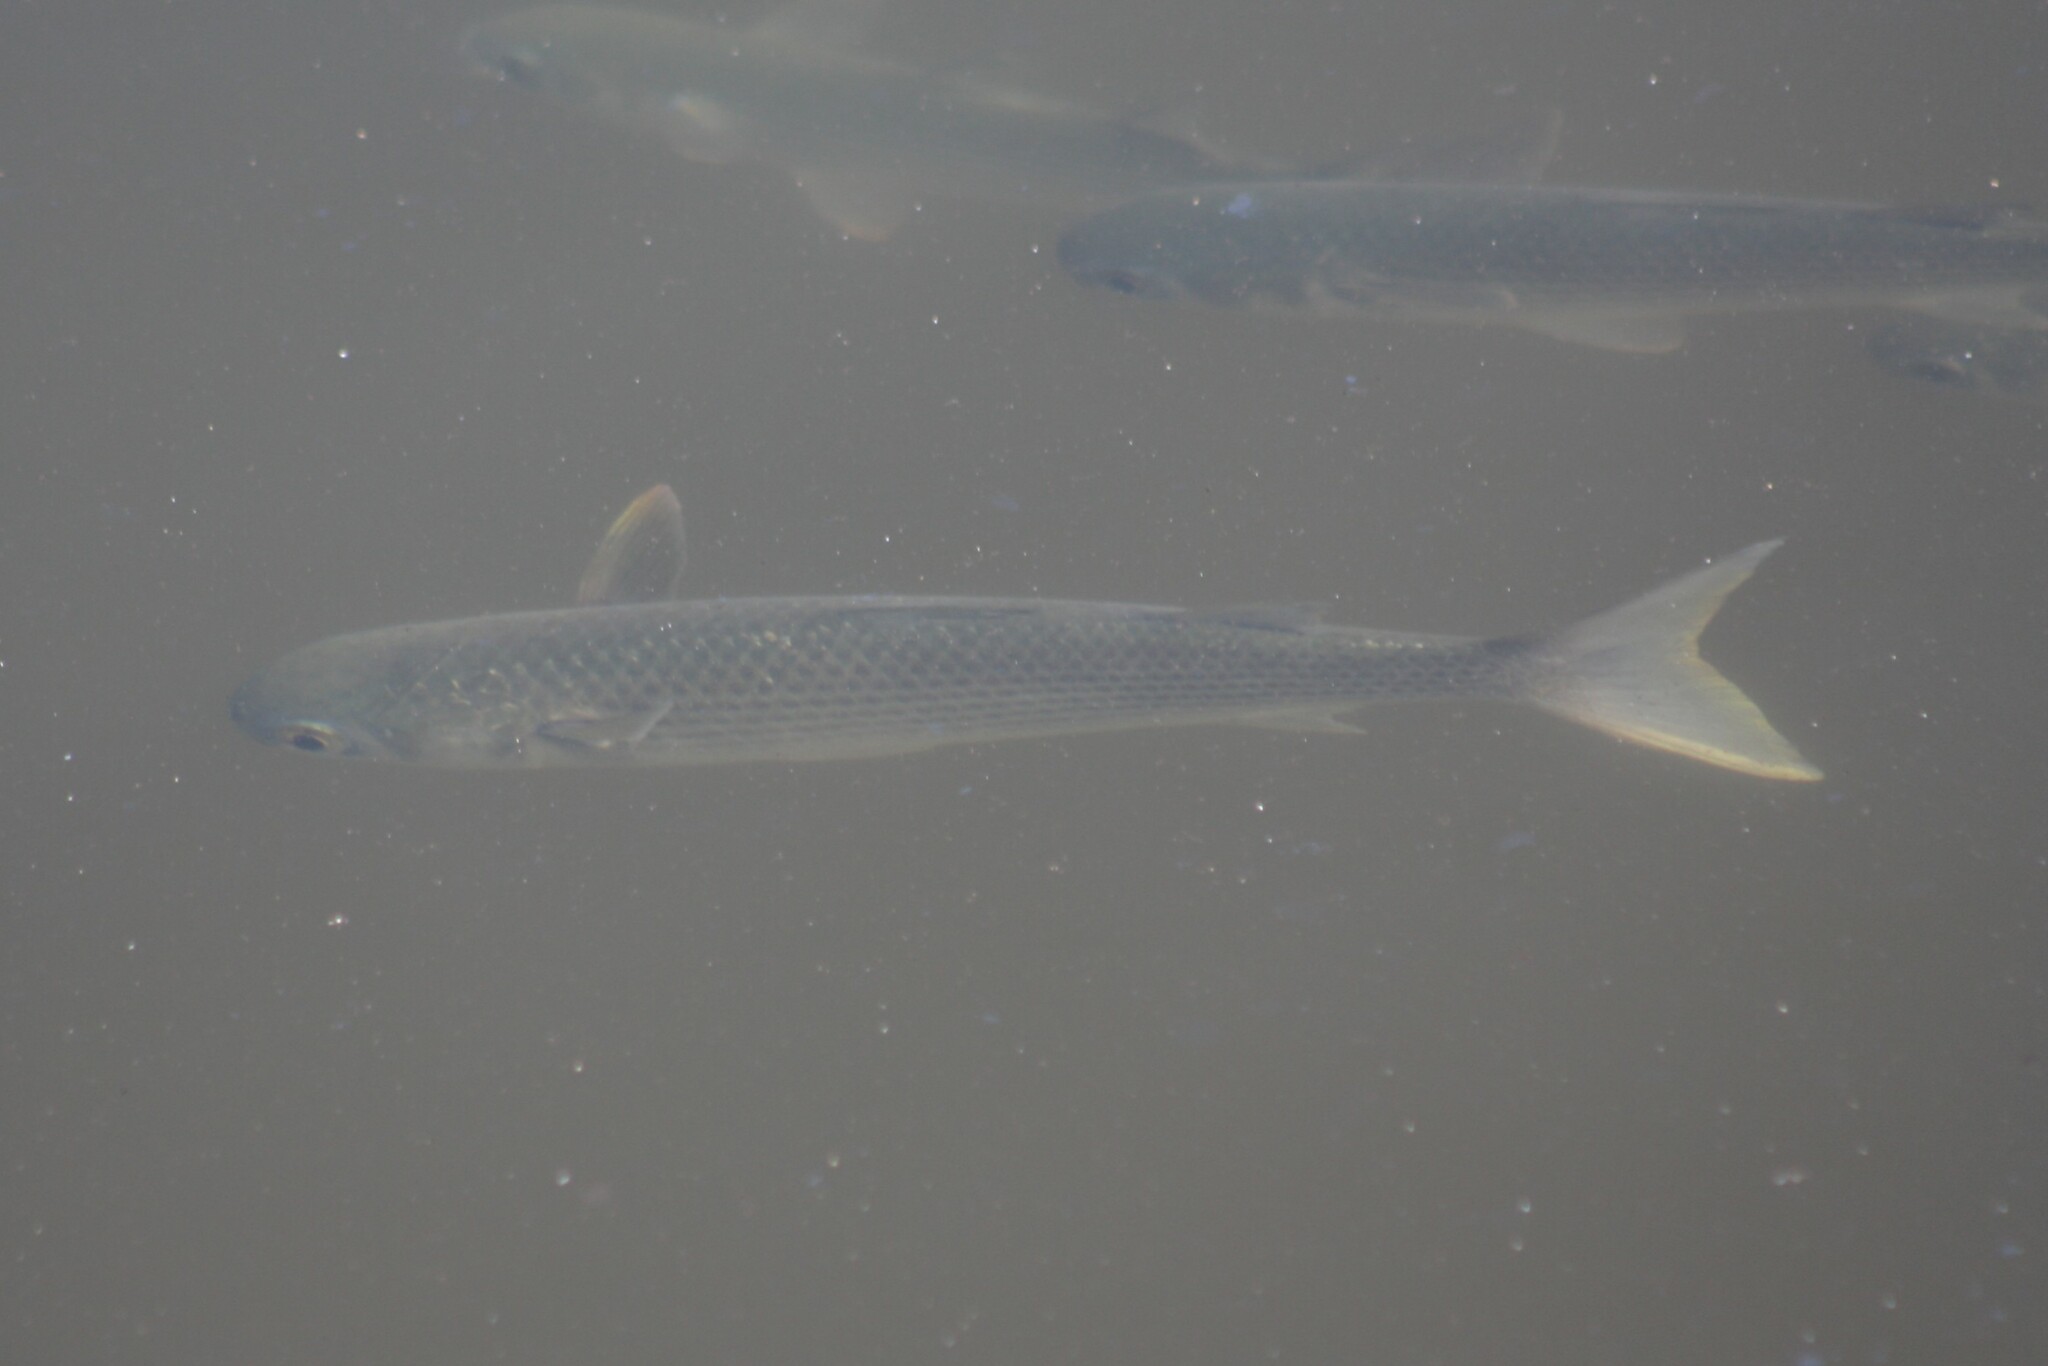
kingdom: Animalia
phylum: Chordata
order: Mugiliformes
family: Mugilidae
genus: Mugil
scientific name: Mugil cephalus
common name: Grey mullet
